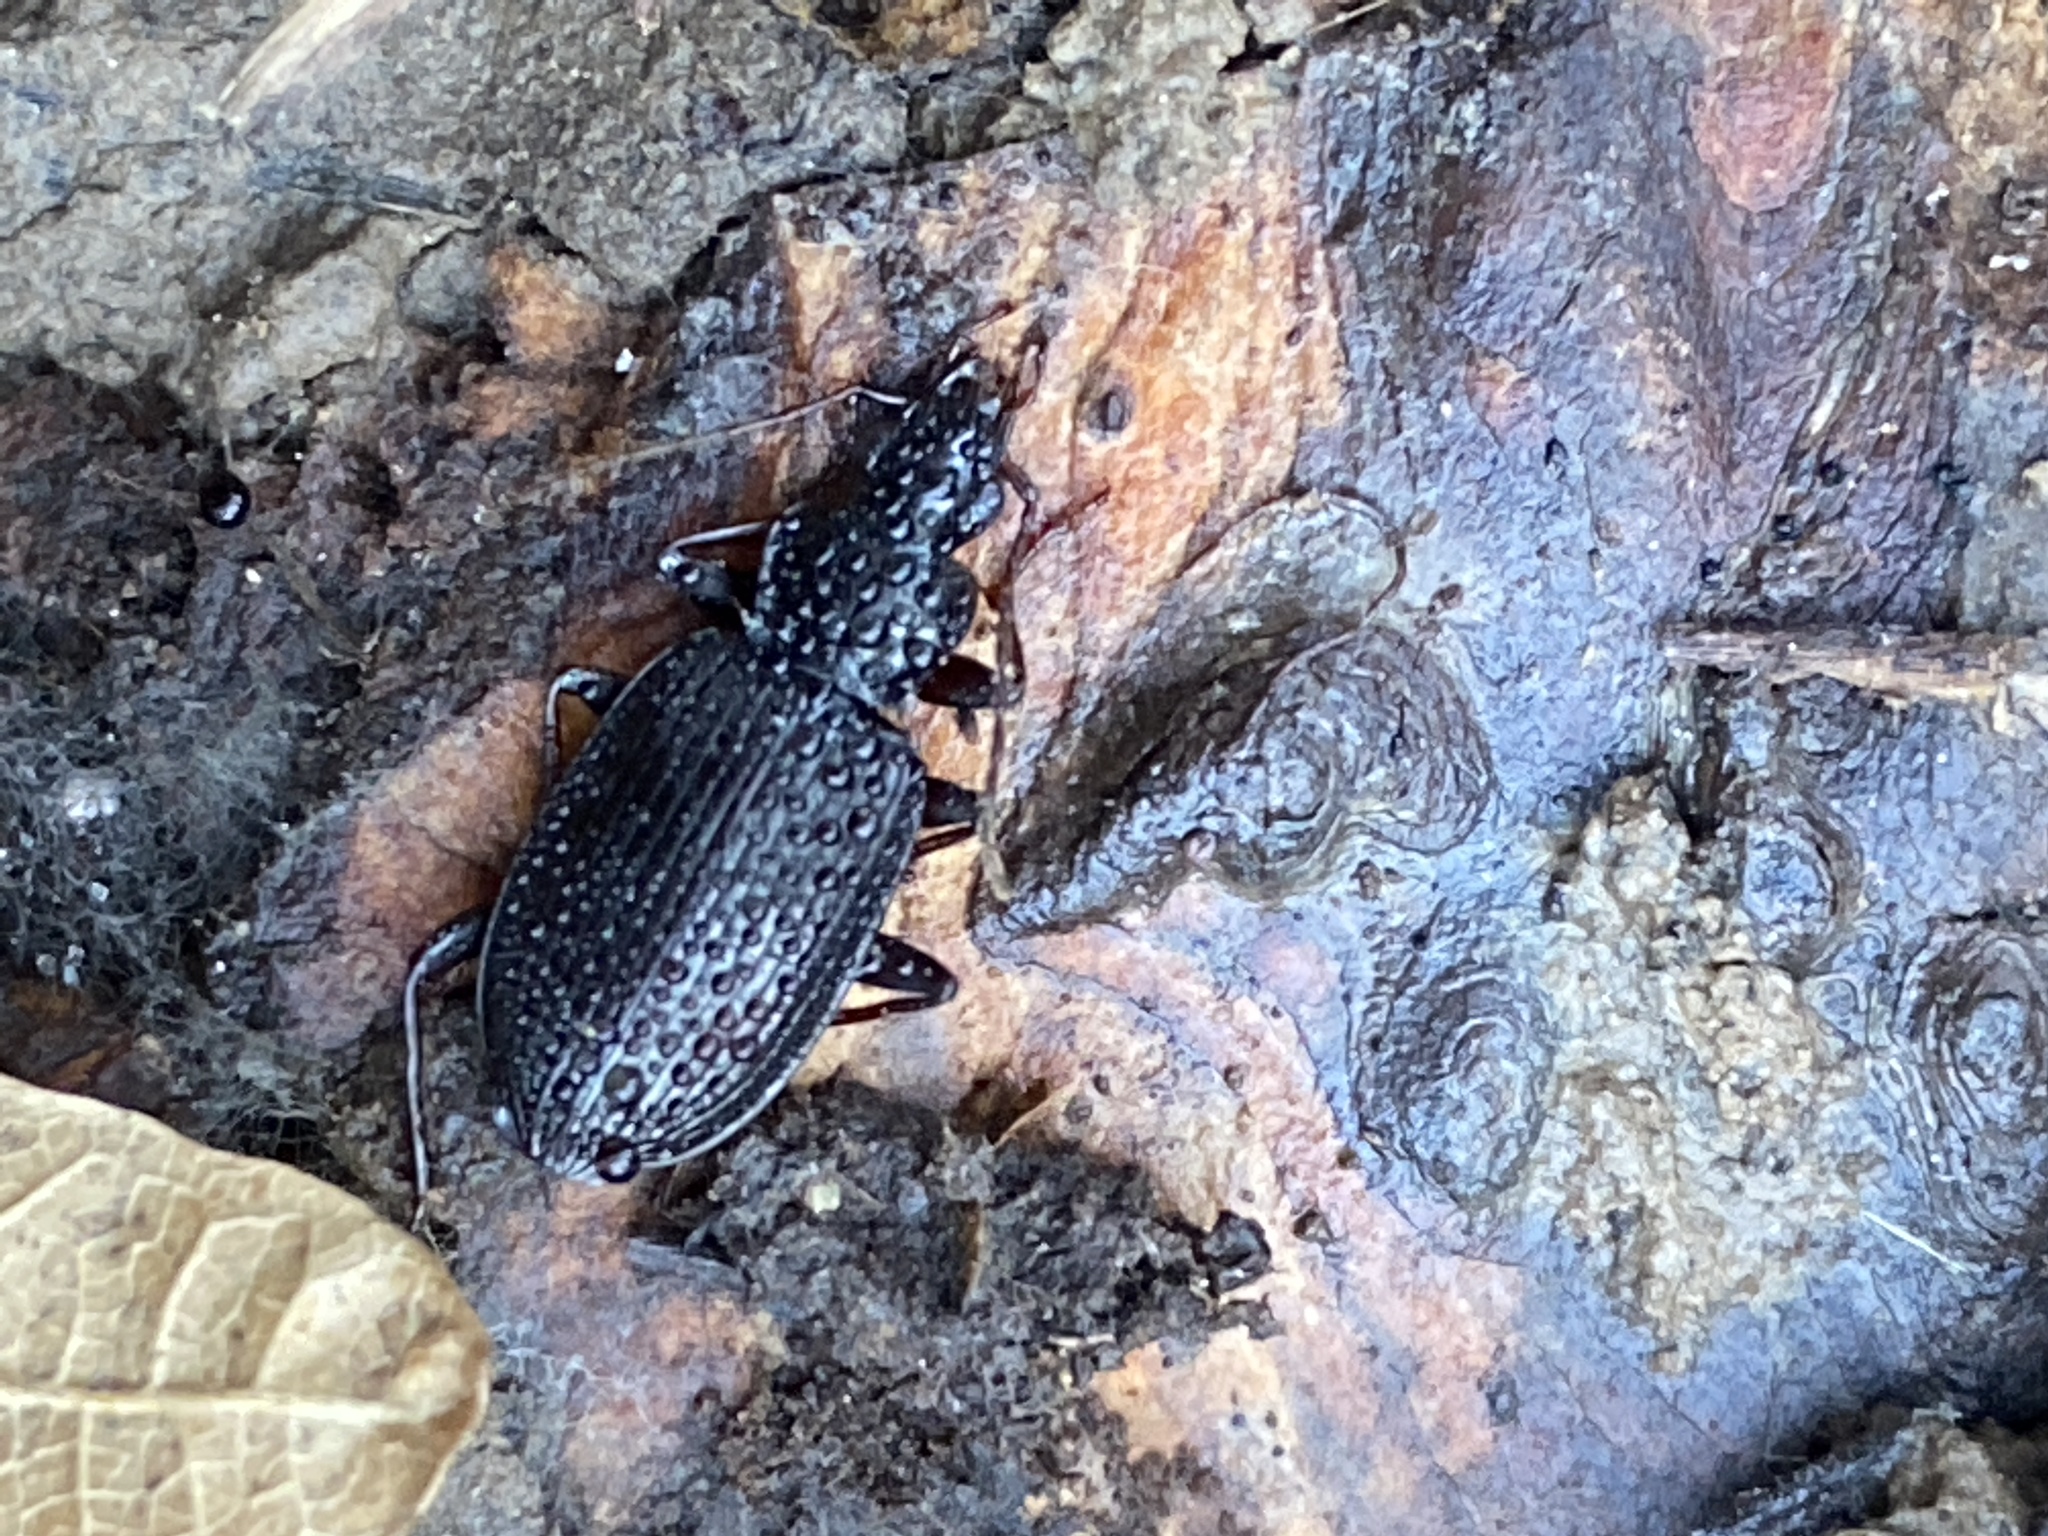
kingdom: Animalia
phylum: Arthropoda
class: Insecta
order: Coleoptera
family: Carabidae
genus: Platynus
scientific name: Platynus assimilis
